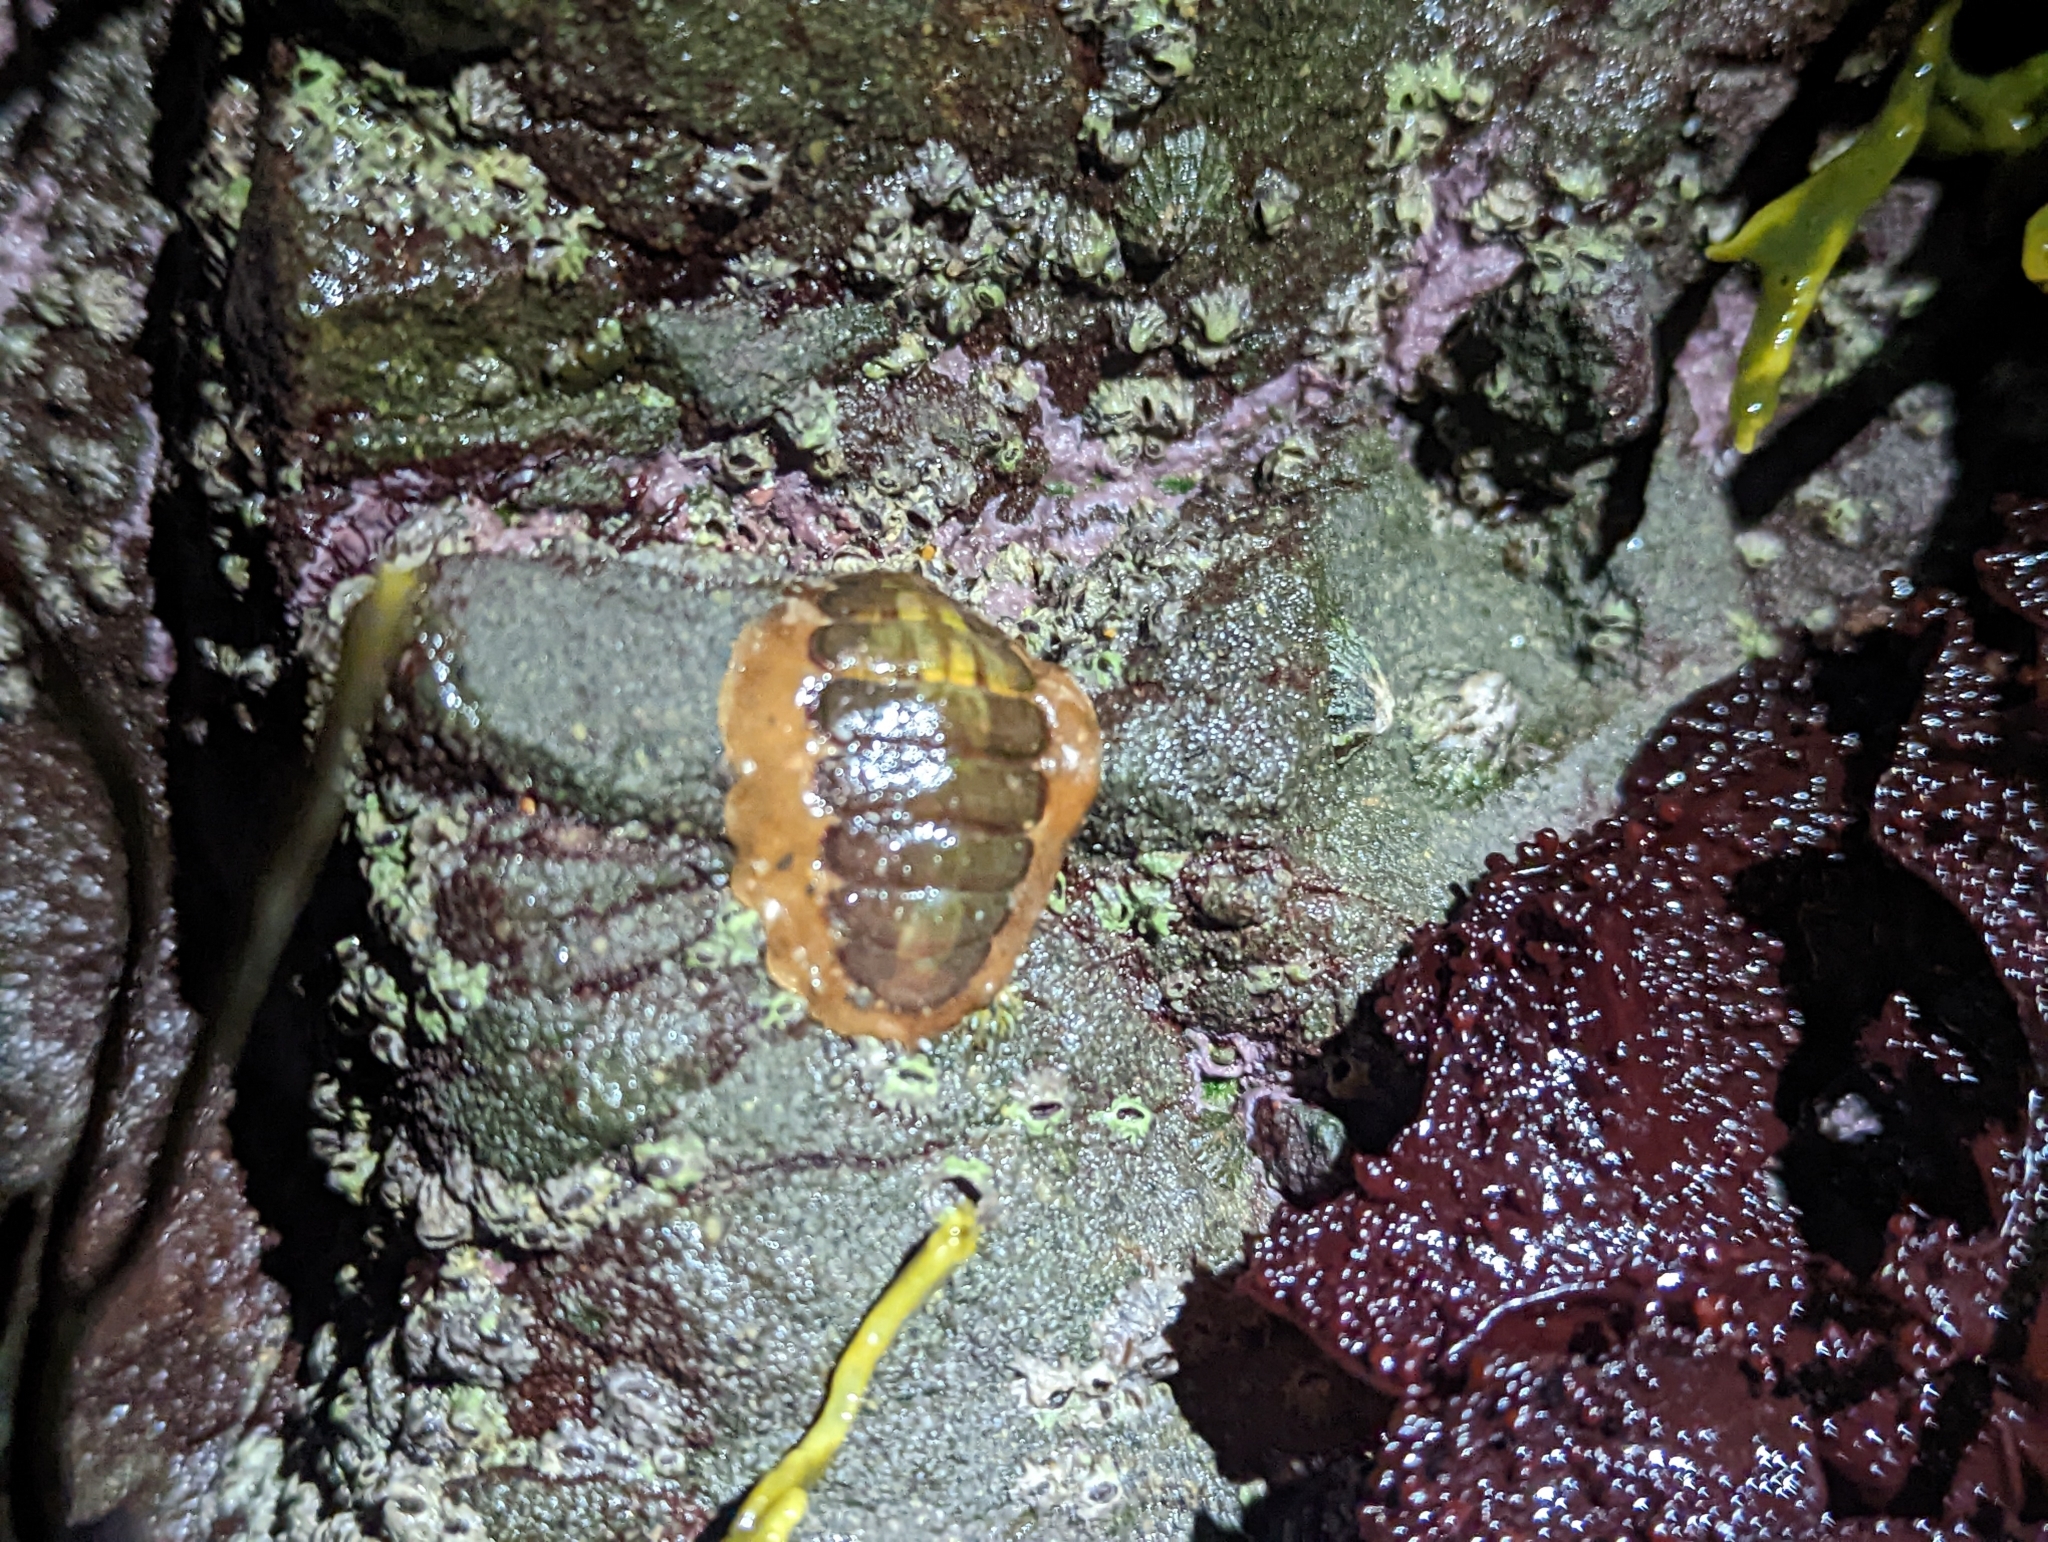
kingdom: Animalia
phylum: Mollusca
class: Polyplacophora
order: Chitonida
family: Tonicellidae
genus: Cyanoplax
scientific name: Cyanoplax hartwegii
